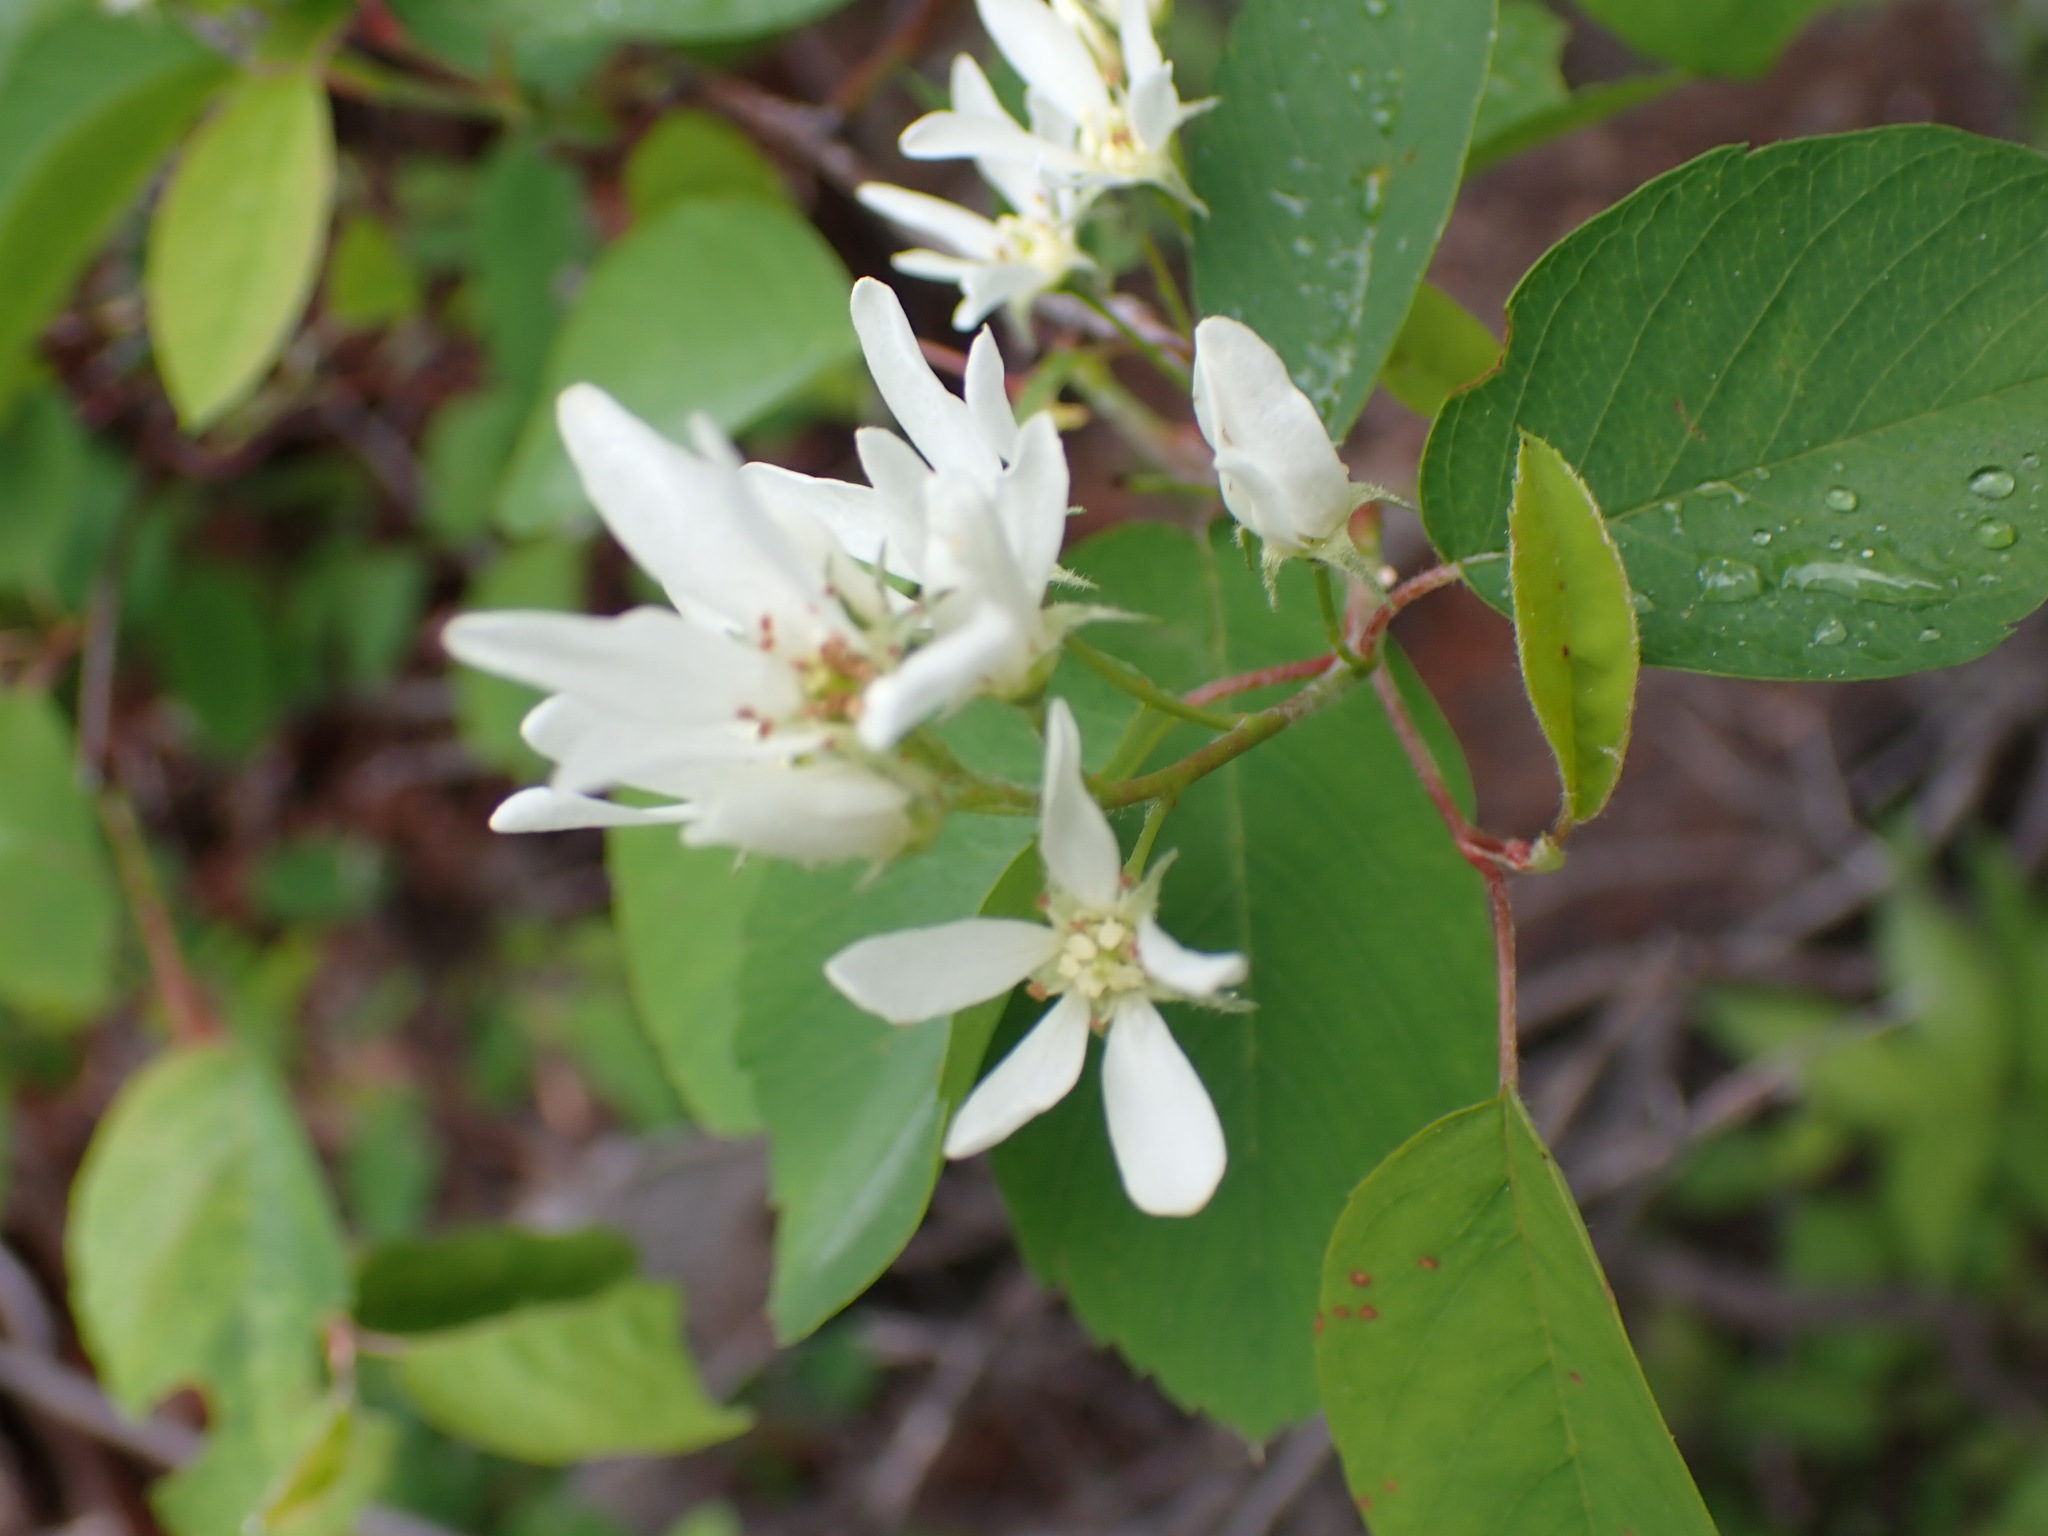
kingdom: Plantae
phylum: Tracheophyta
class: Magnoliopsida
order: Rosales
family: Rosaceae
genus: Amelanchier
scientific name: Amelanchier alnifolia
